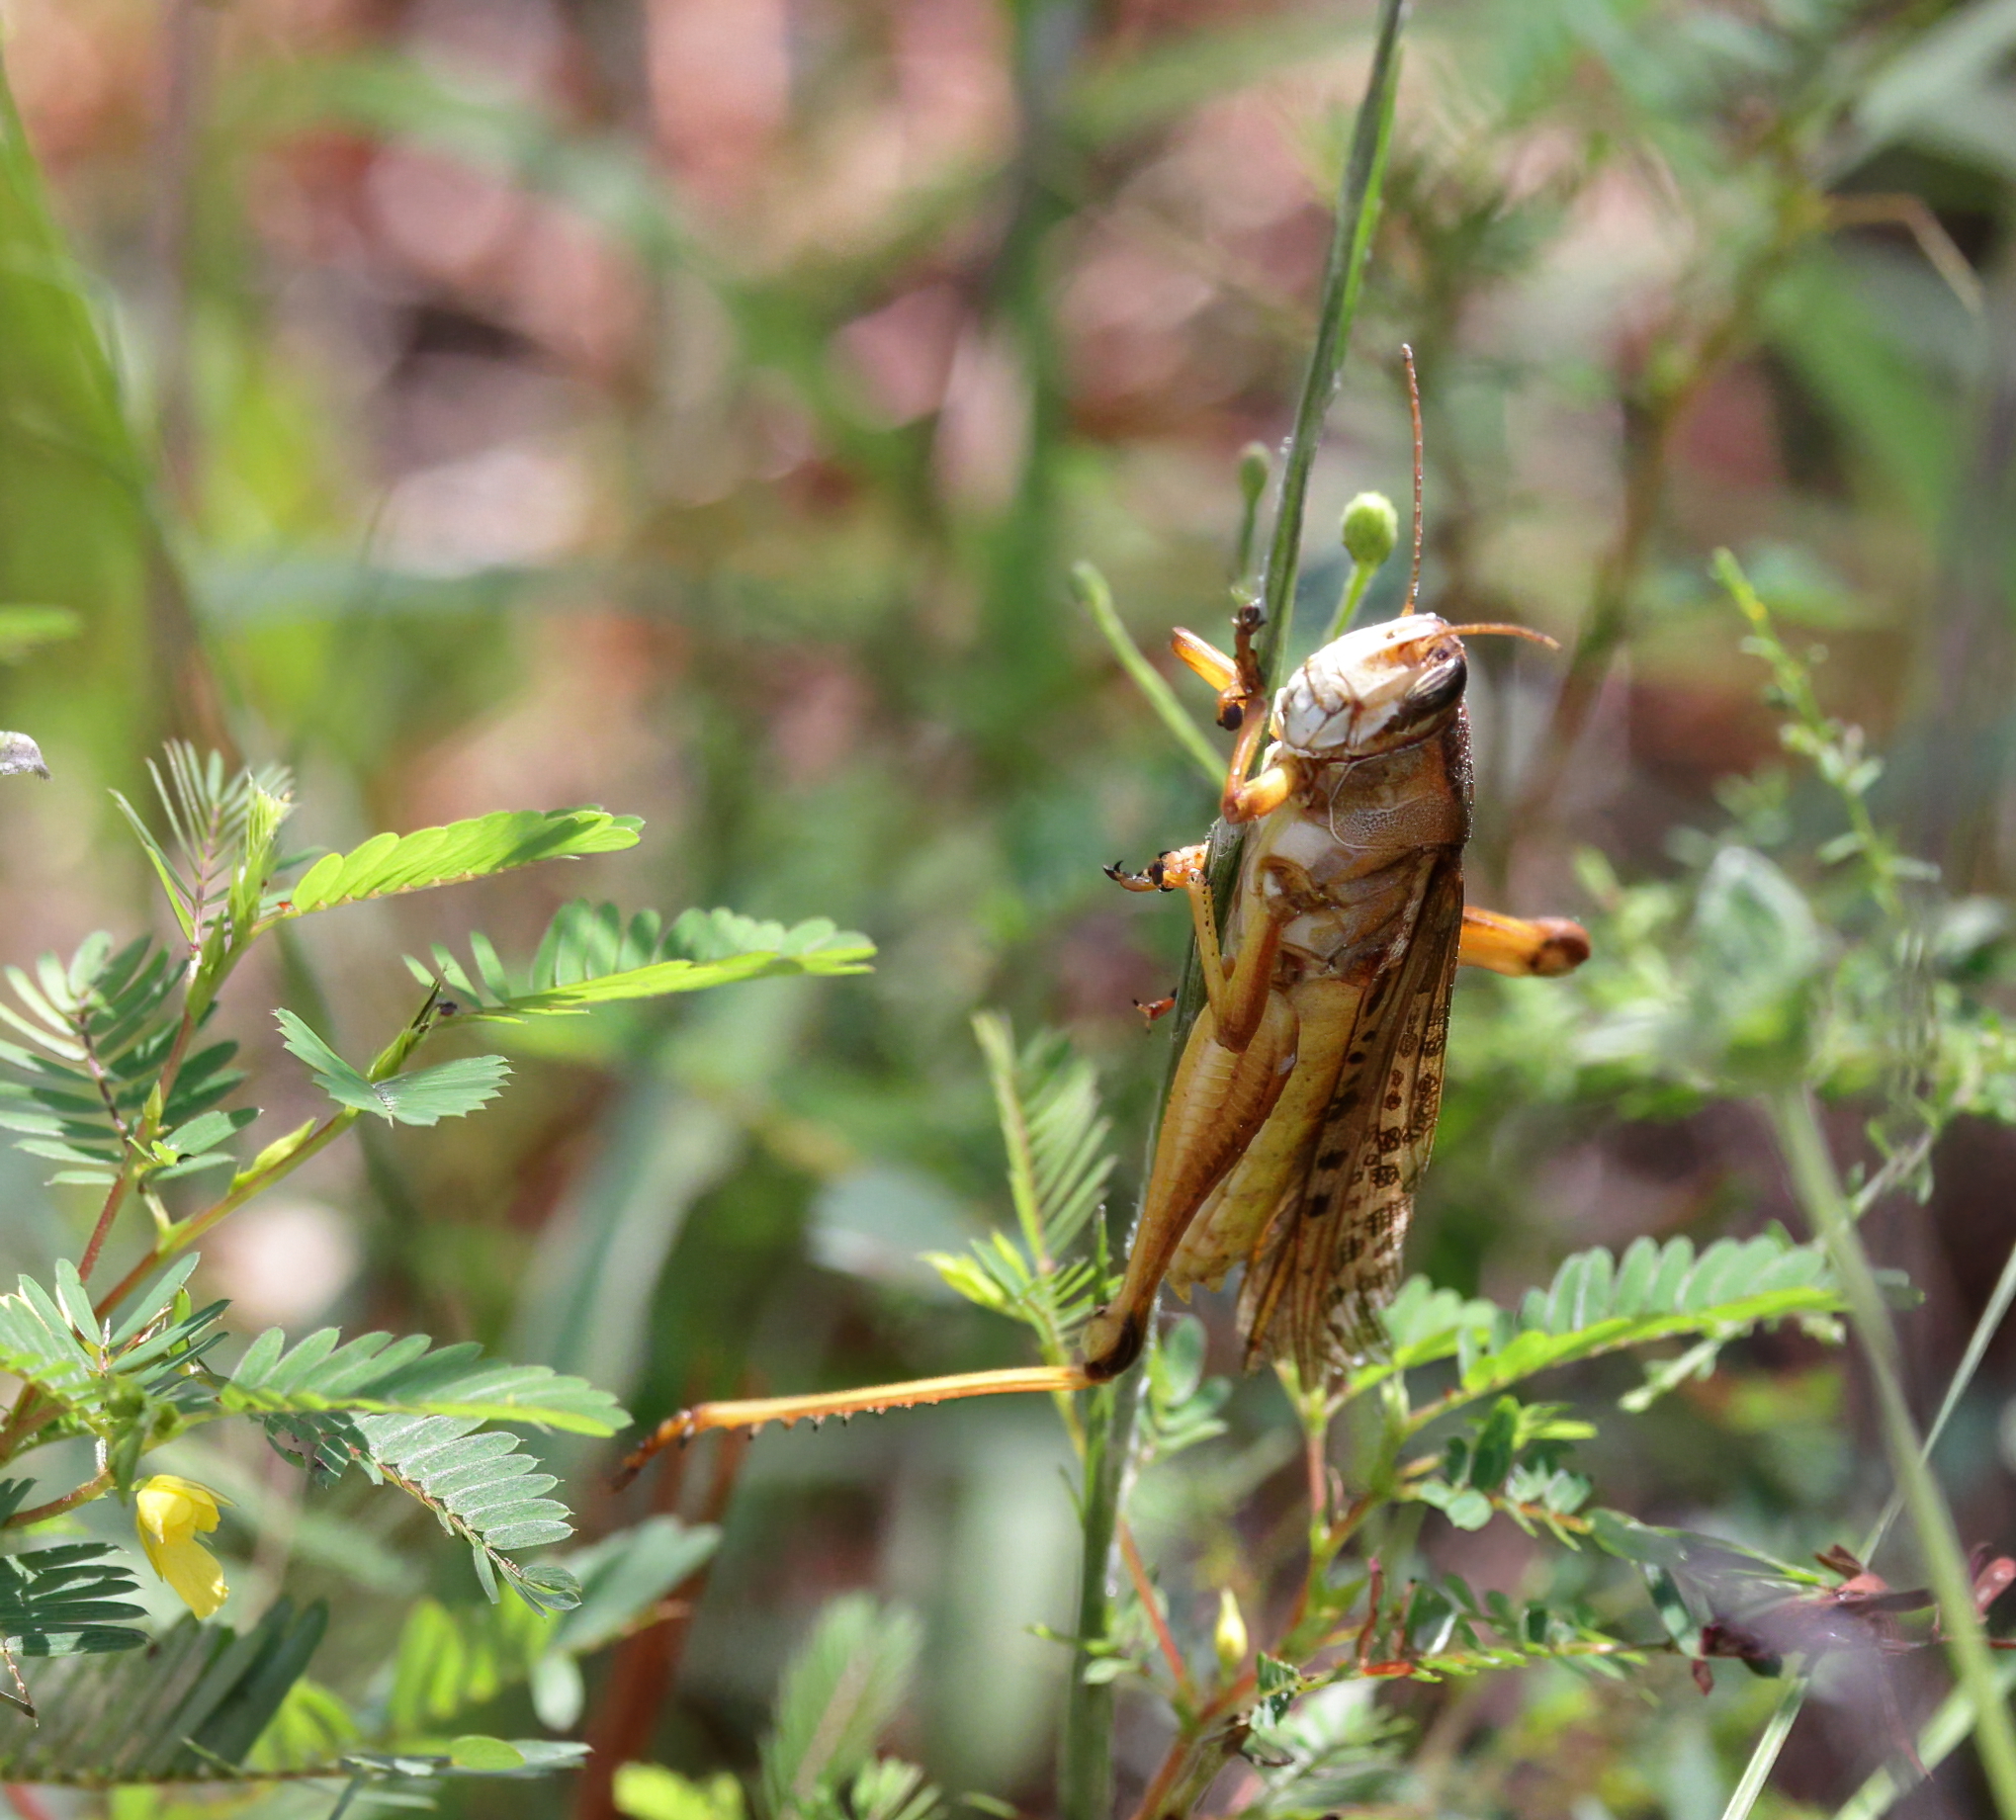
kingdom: Animalia
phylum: Arthropoda
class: Insecta
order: Orthoptera
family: Acrididae
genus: Schistocerca
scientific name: Schistocerca americana
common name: American bird locust
